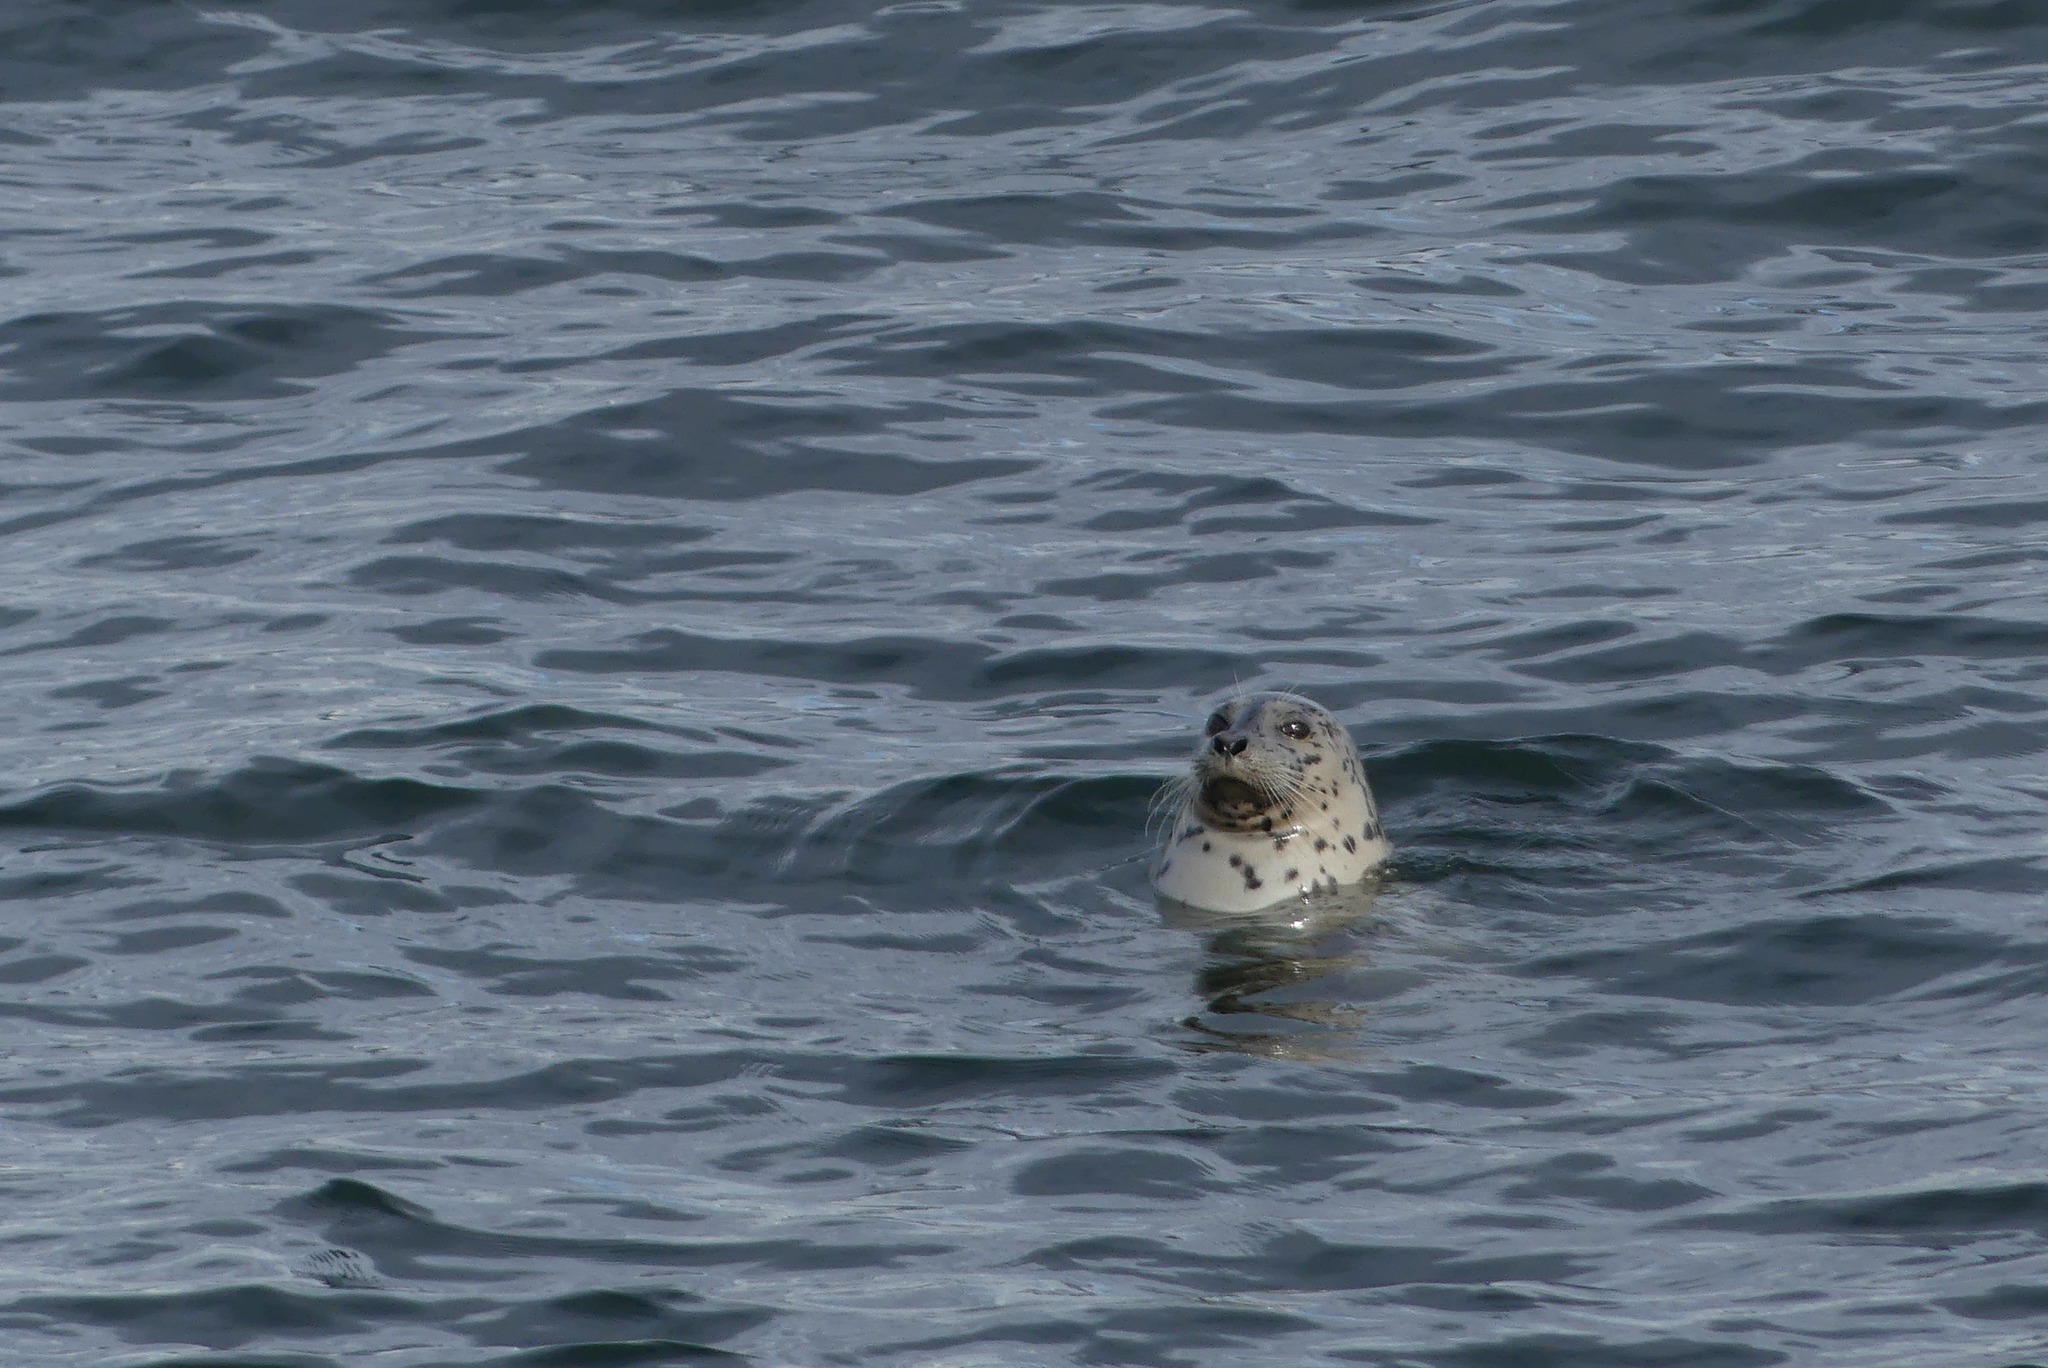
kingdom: Animalia
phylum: Chordata
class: Mammalia
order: Carnivora
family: Phocidae
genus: Phoca
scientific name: Phoca vitulina
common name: Harbor seal
